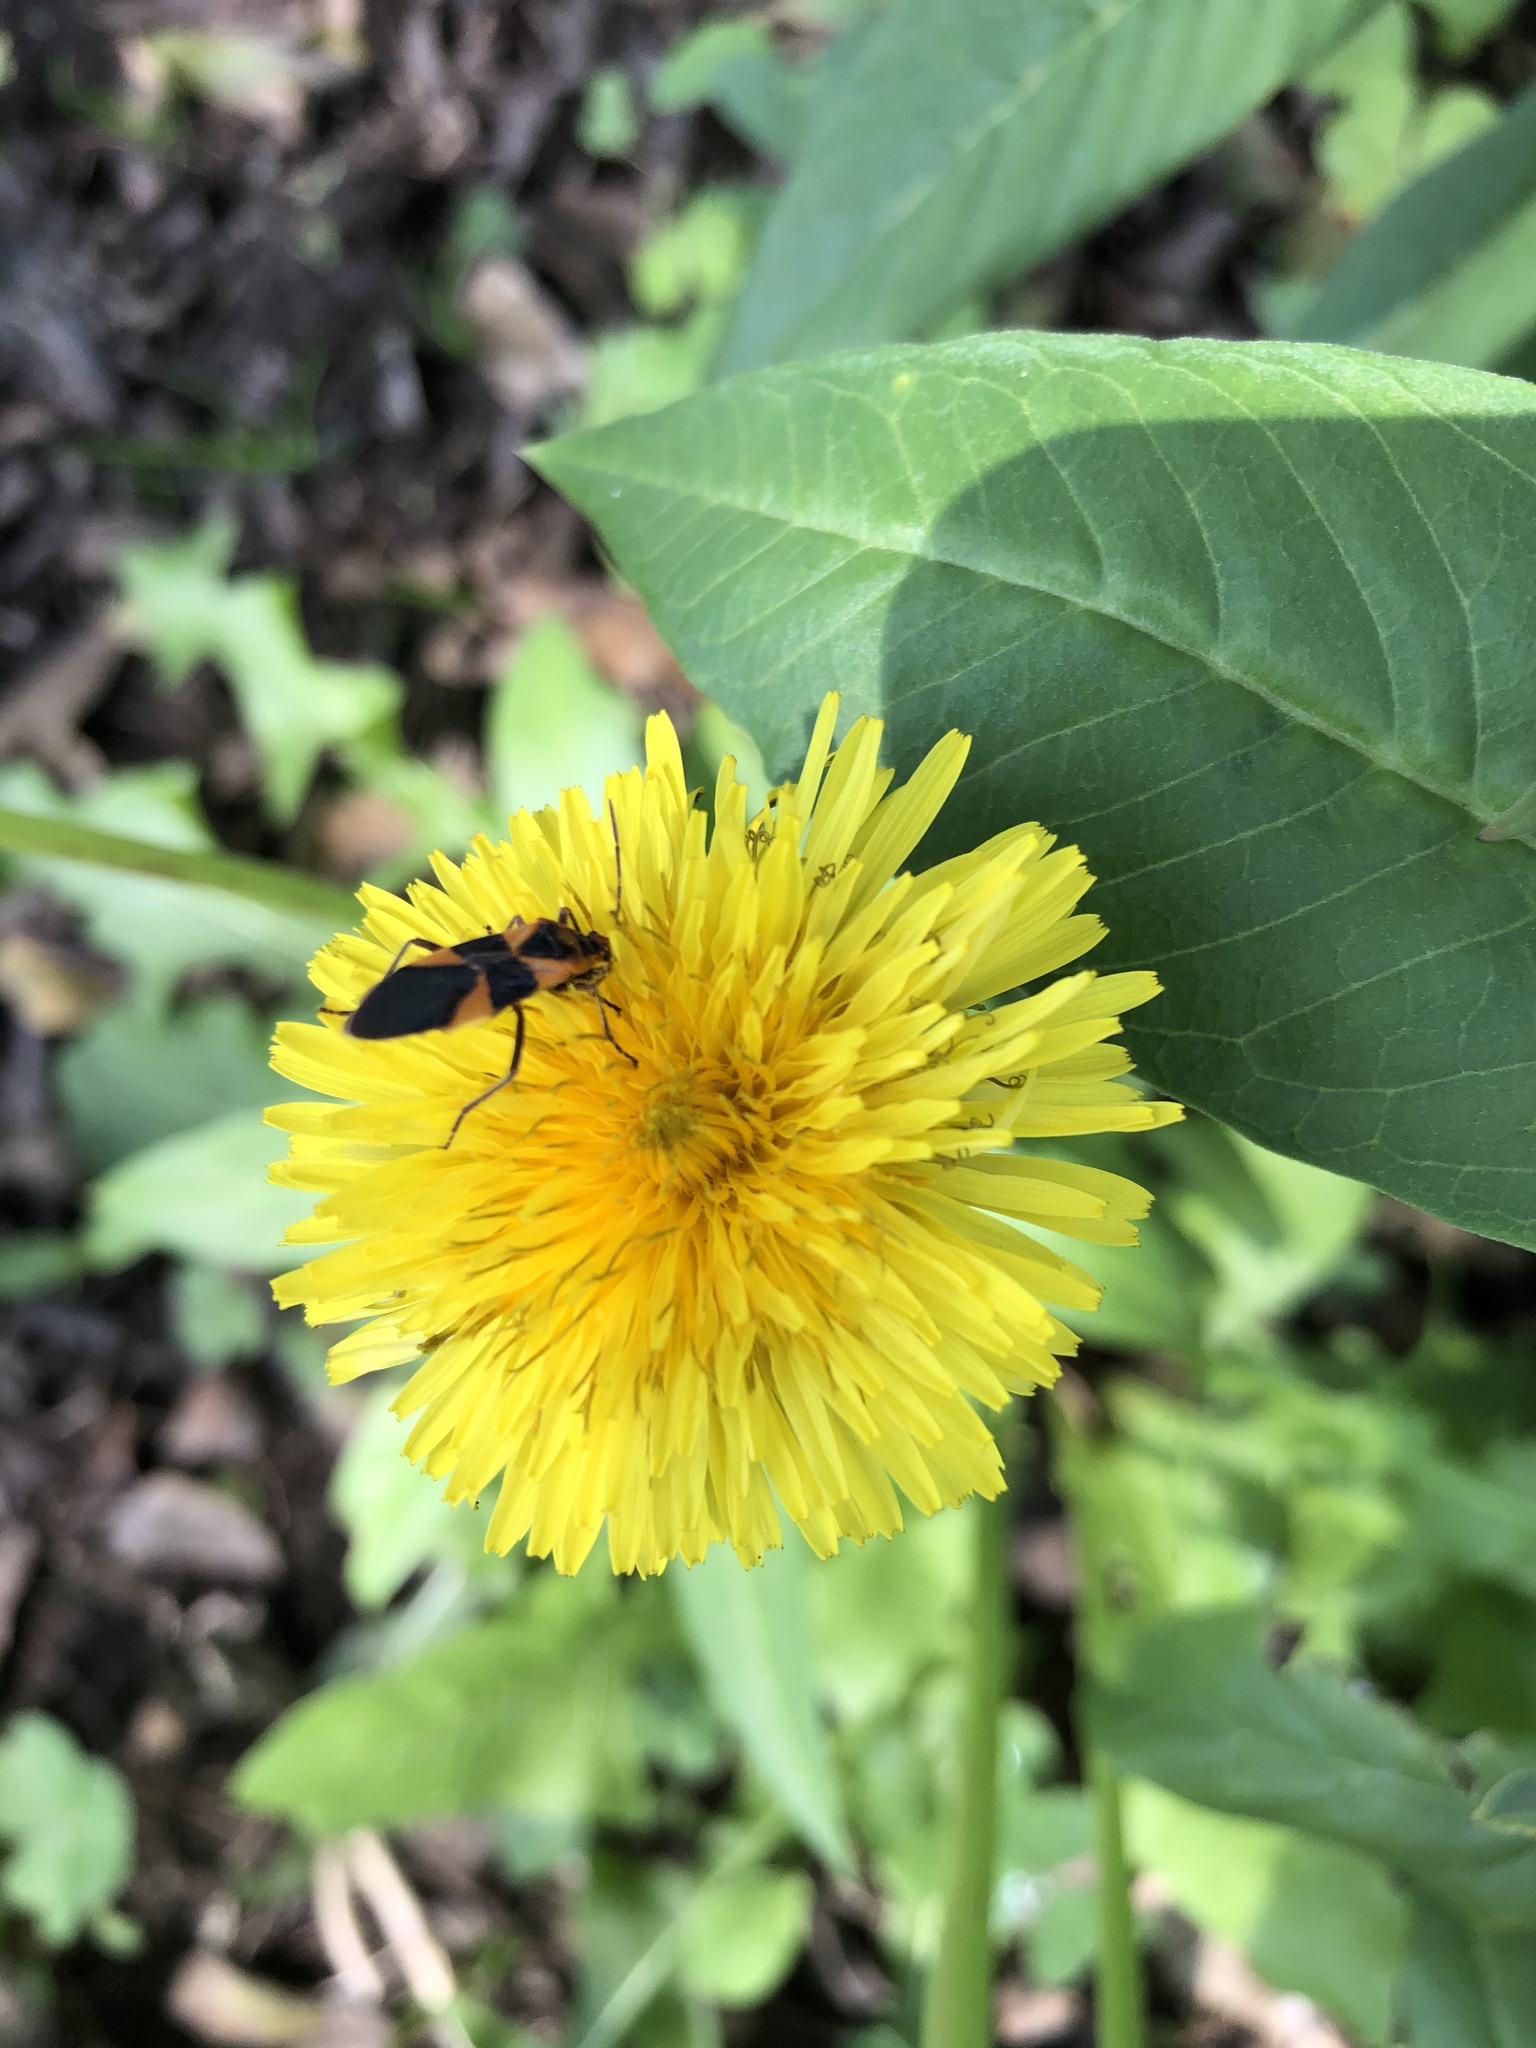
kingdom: Animalia
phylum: Arthropoda
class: Insecta
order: Hemiptera
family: Lygaeidae
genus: Oncopeltus
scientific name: Oncopeltus zonatus
